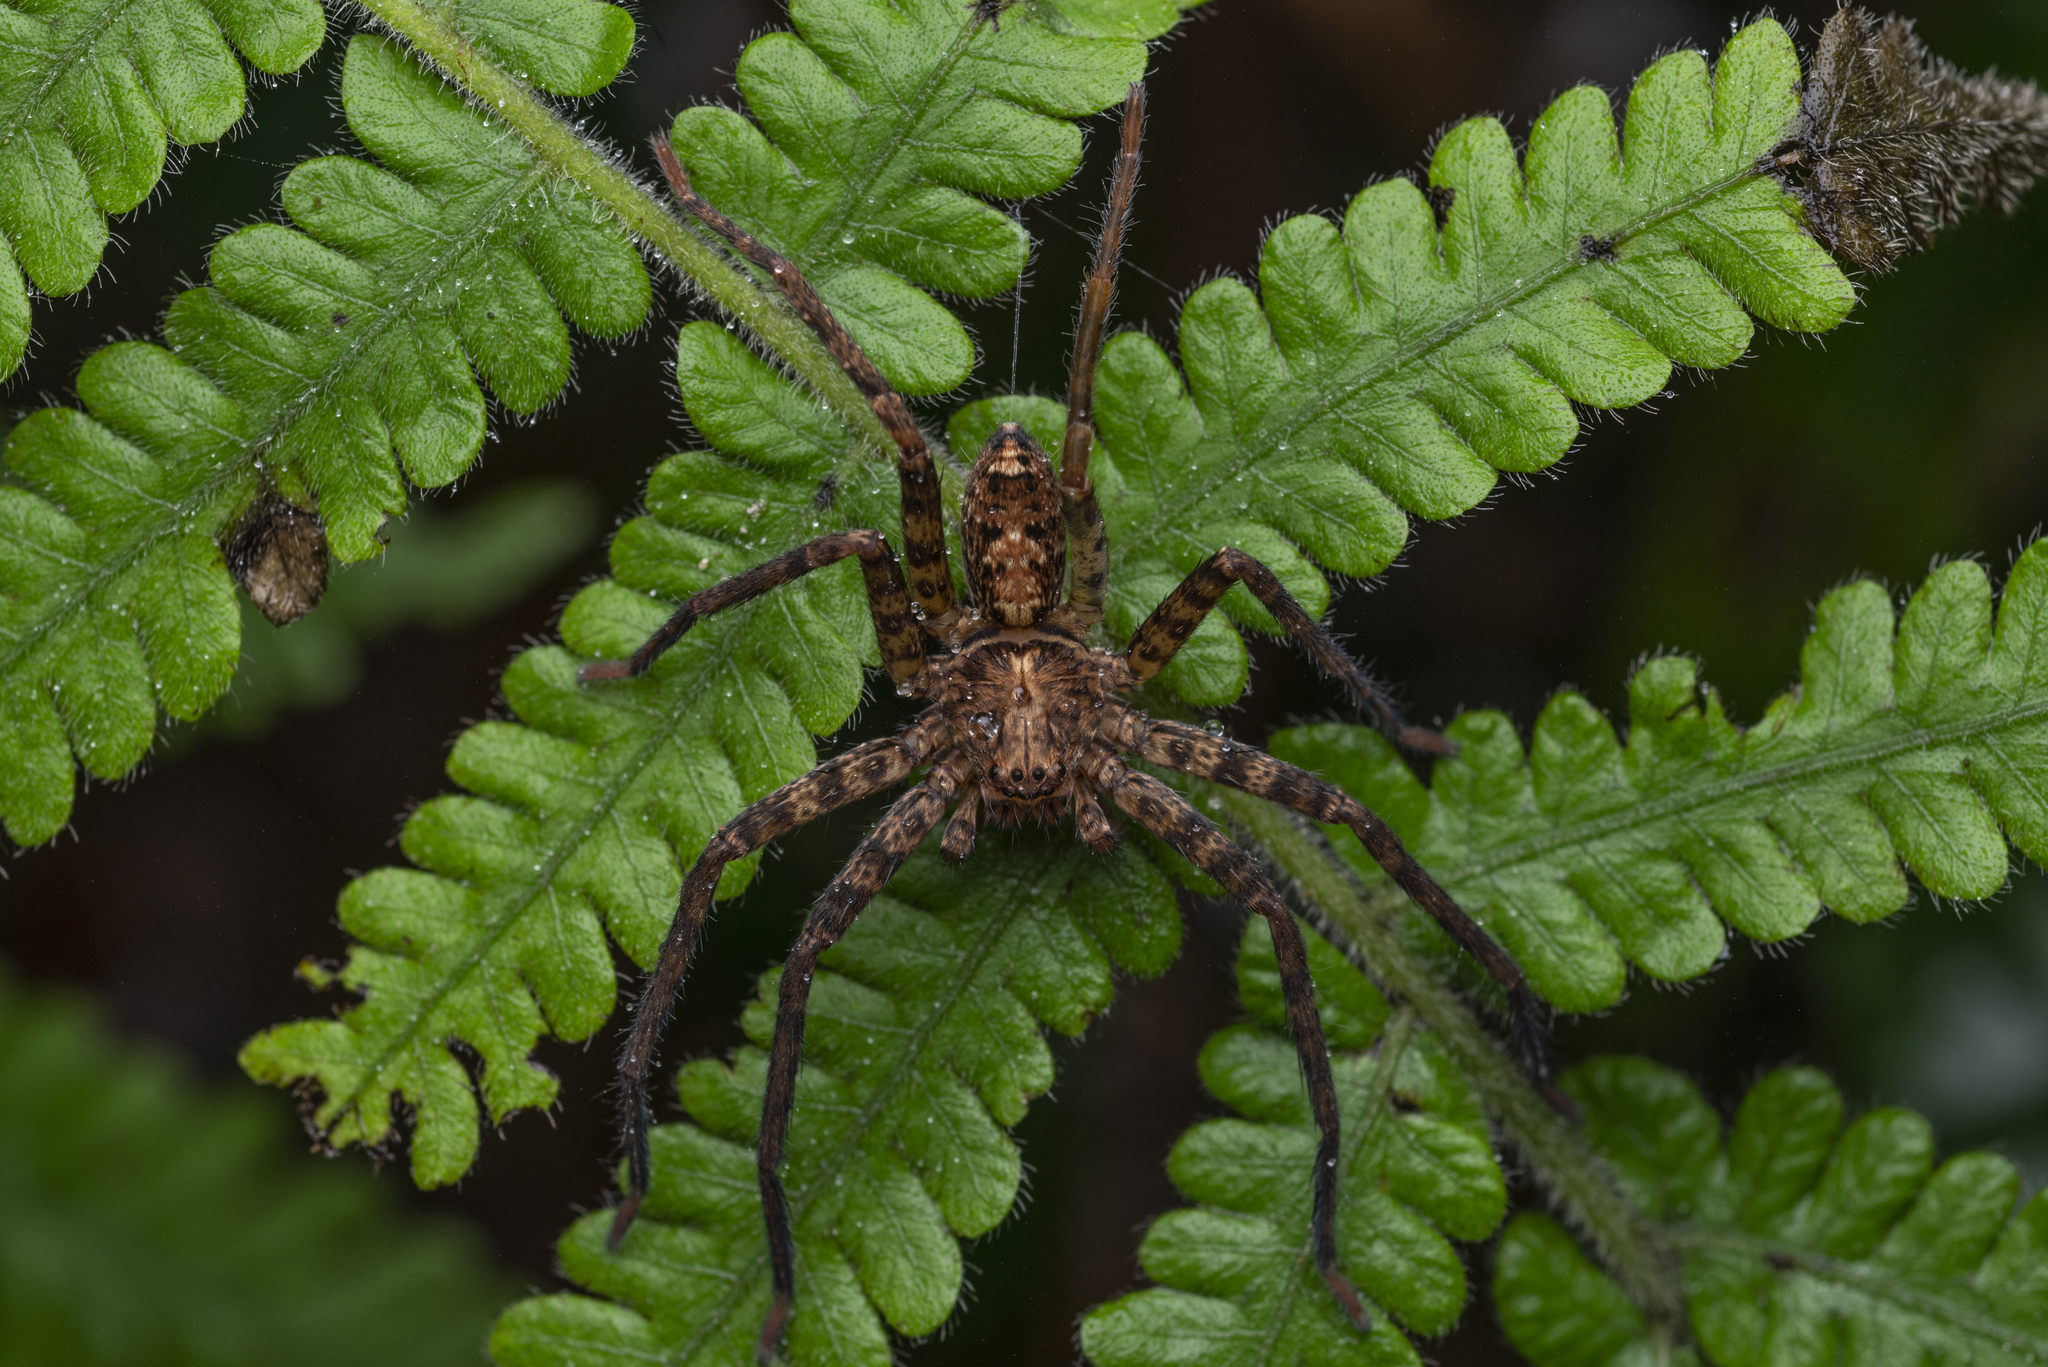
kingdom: Animalia
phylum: Arthropoda
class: Arachnida
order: Araneae
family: Sparassidae
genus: Heteropoda
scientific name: Heteropoda amphora
